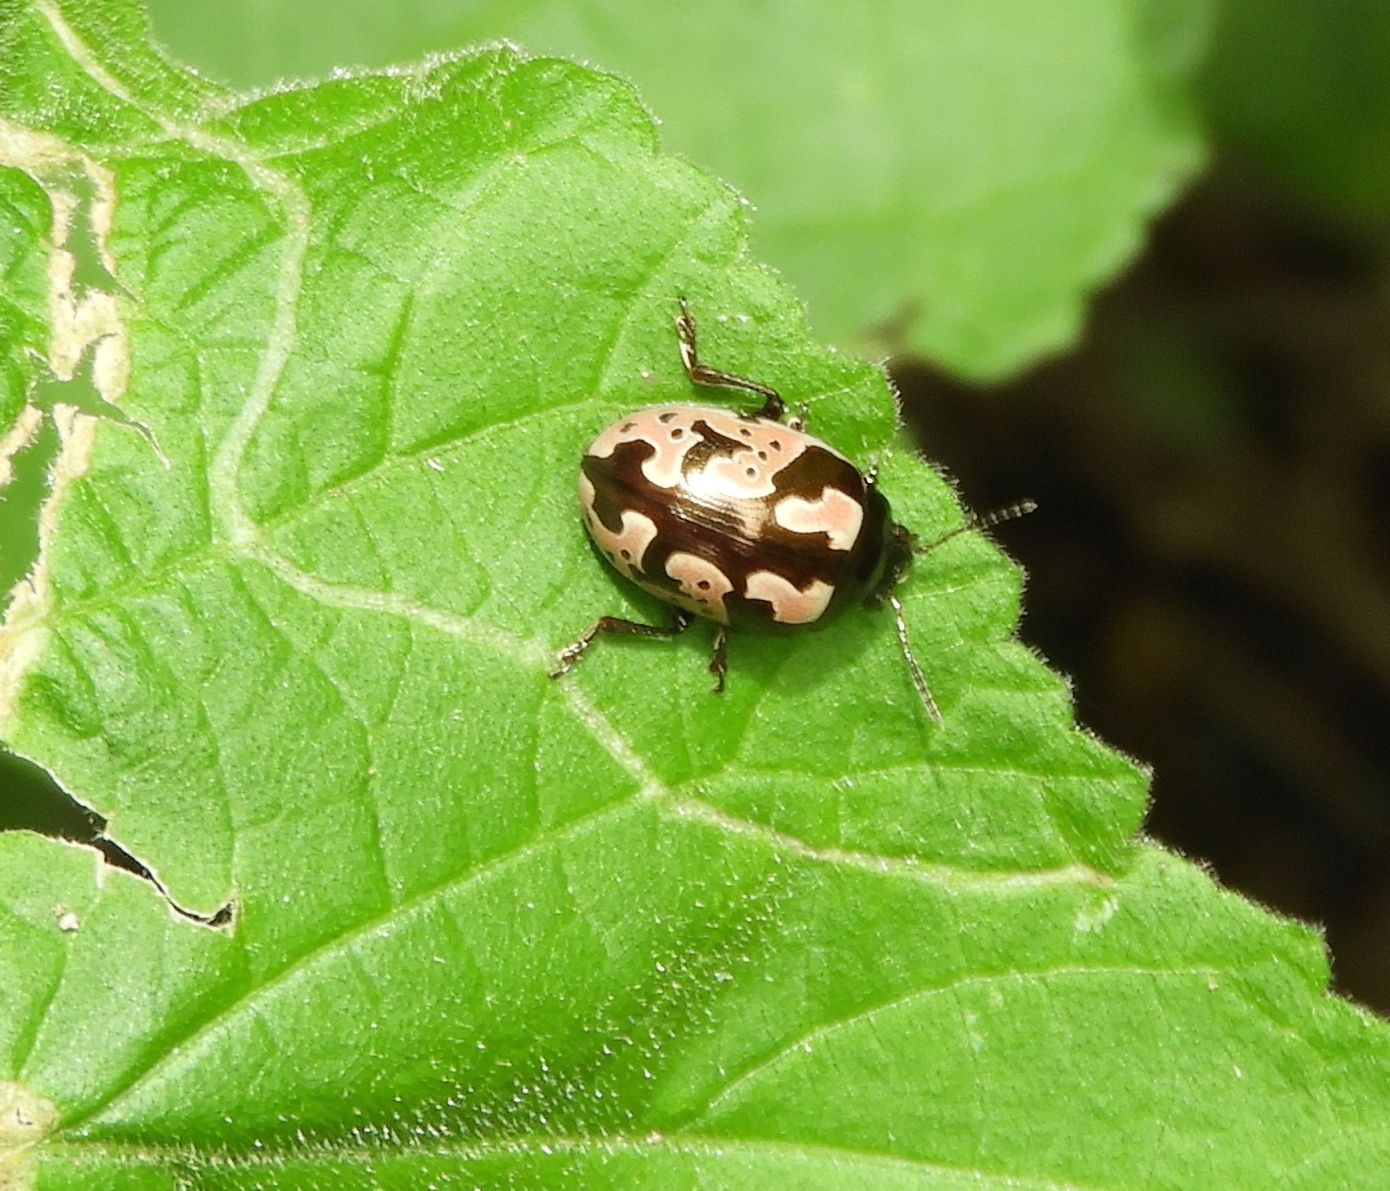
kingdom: Animalia
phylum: Arthropoda
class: Insecta
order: Coleoptera
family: Chrysomelidae
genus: Calligrapha
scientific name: Calligrapha ancoralis
